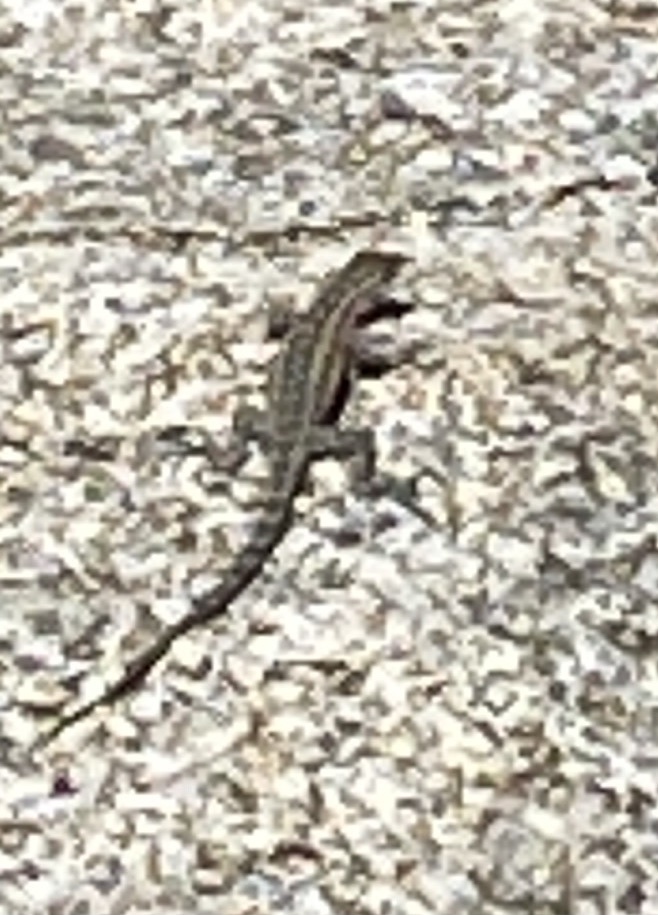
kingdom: Animalia
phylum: Chordata
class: Squamata
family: Phrynosomatidae
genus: Uta
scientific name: Uta stansburiana
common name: Side-blotched lizard
